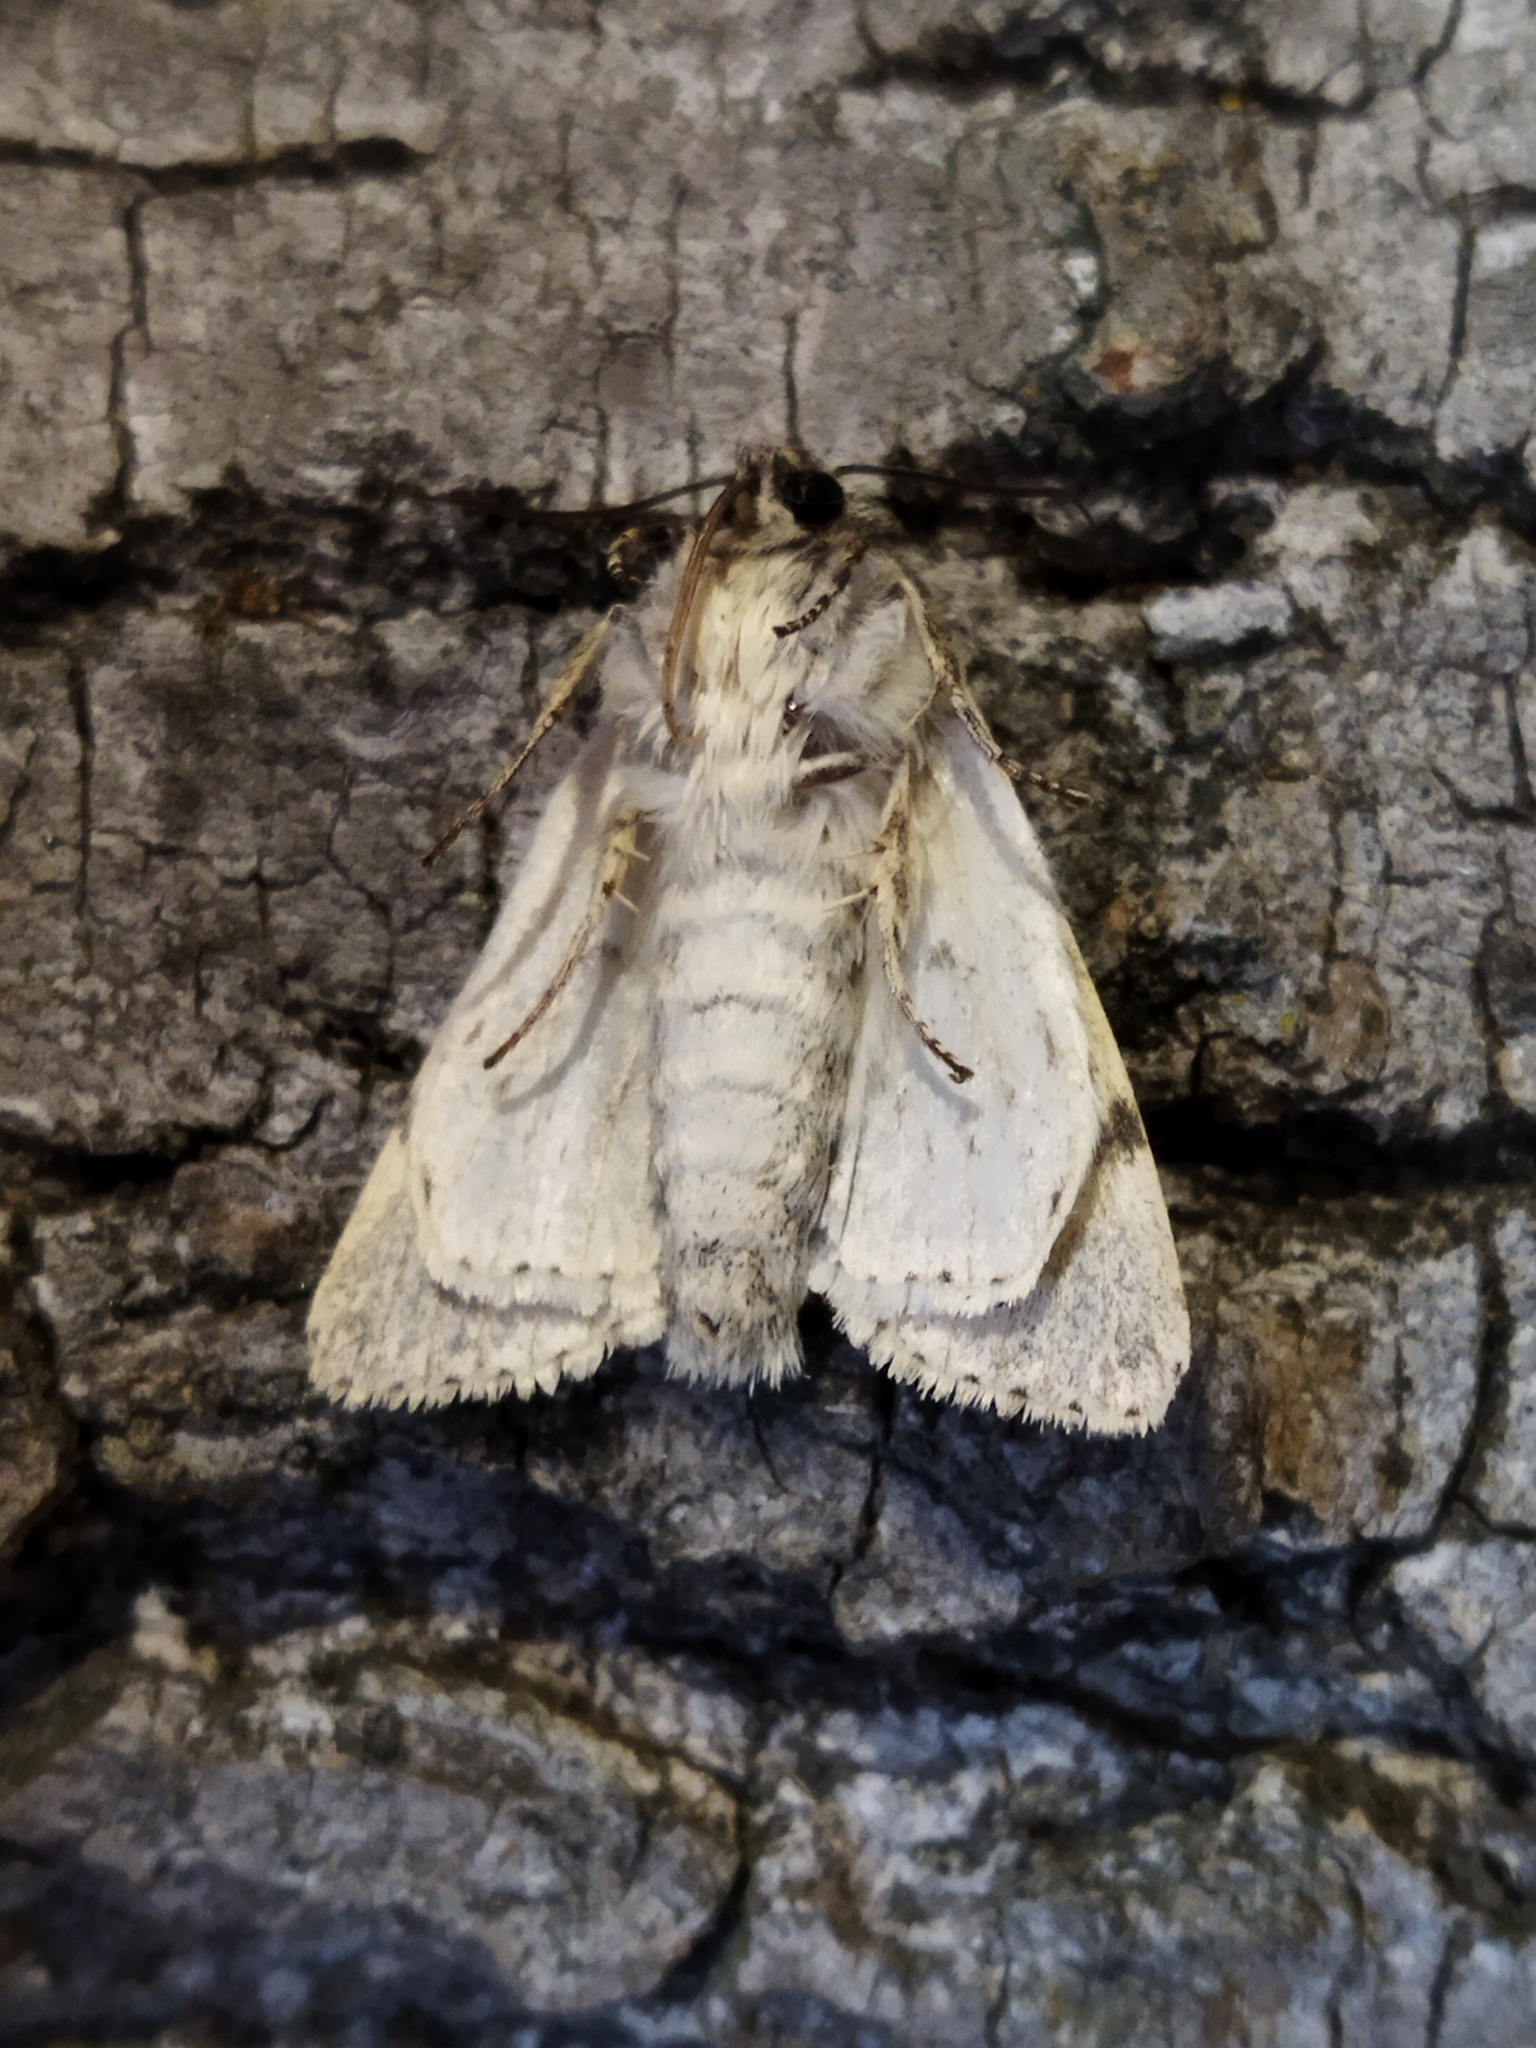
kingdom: Animalia
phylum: Arthropoda
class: Insecta
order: Lepidoptera
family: Noctuidae
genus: Acronicta
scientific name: Acronicta megacephala
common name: Poplar grey
